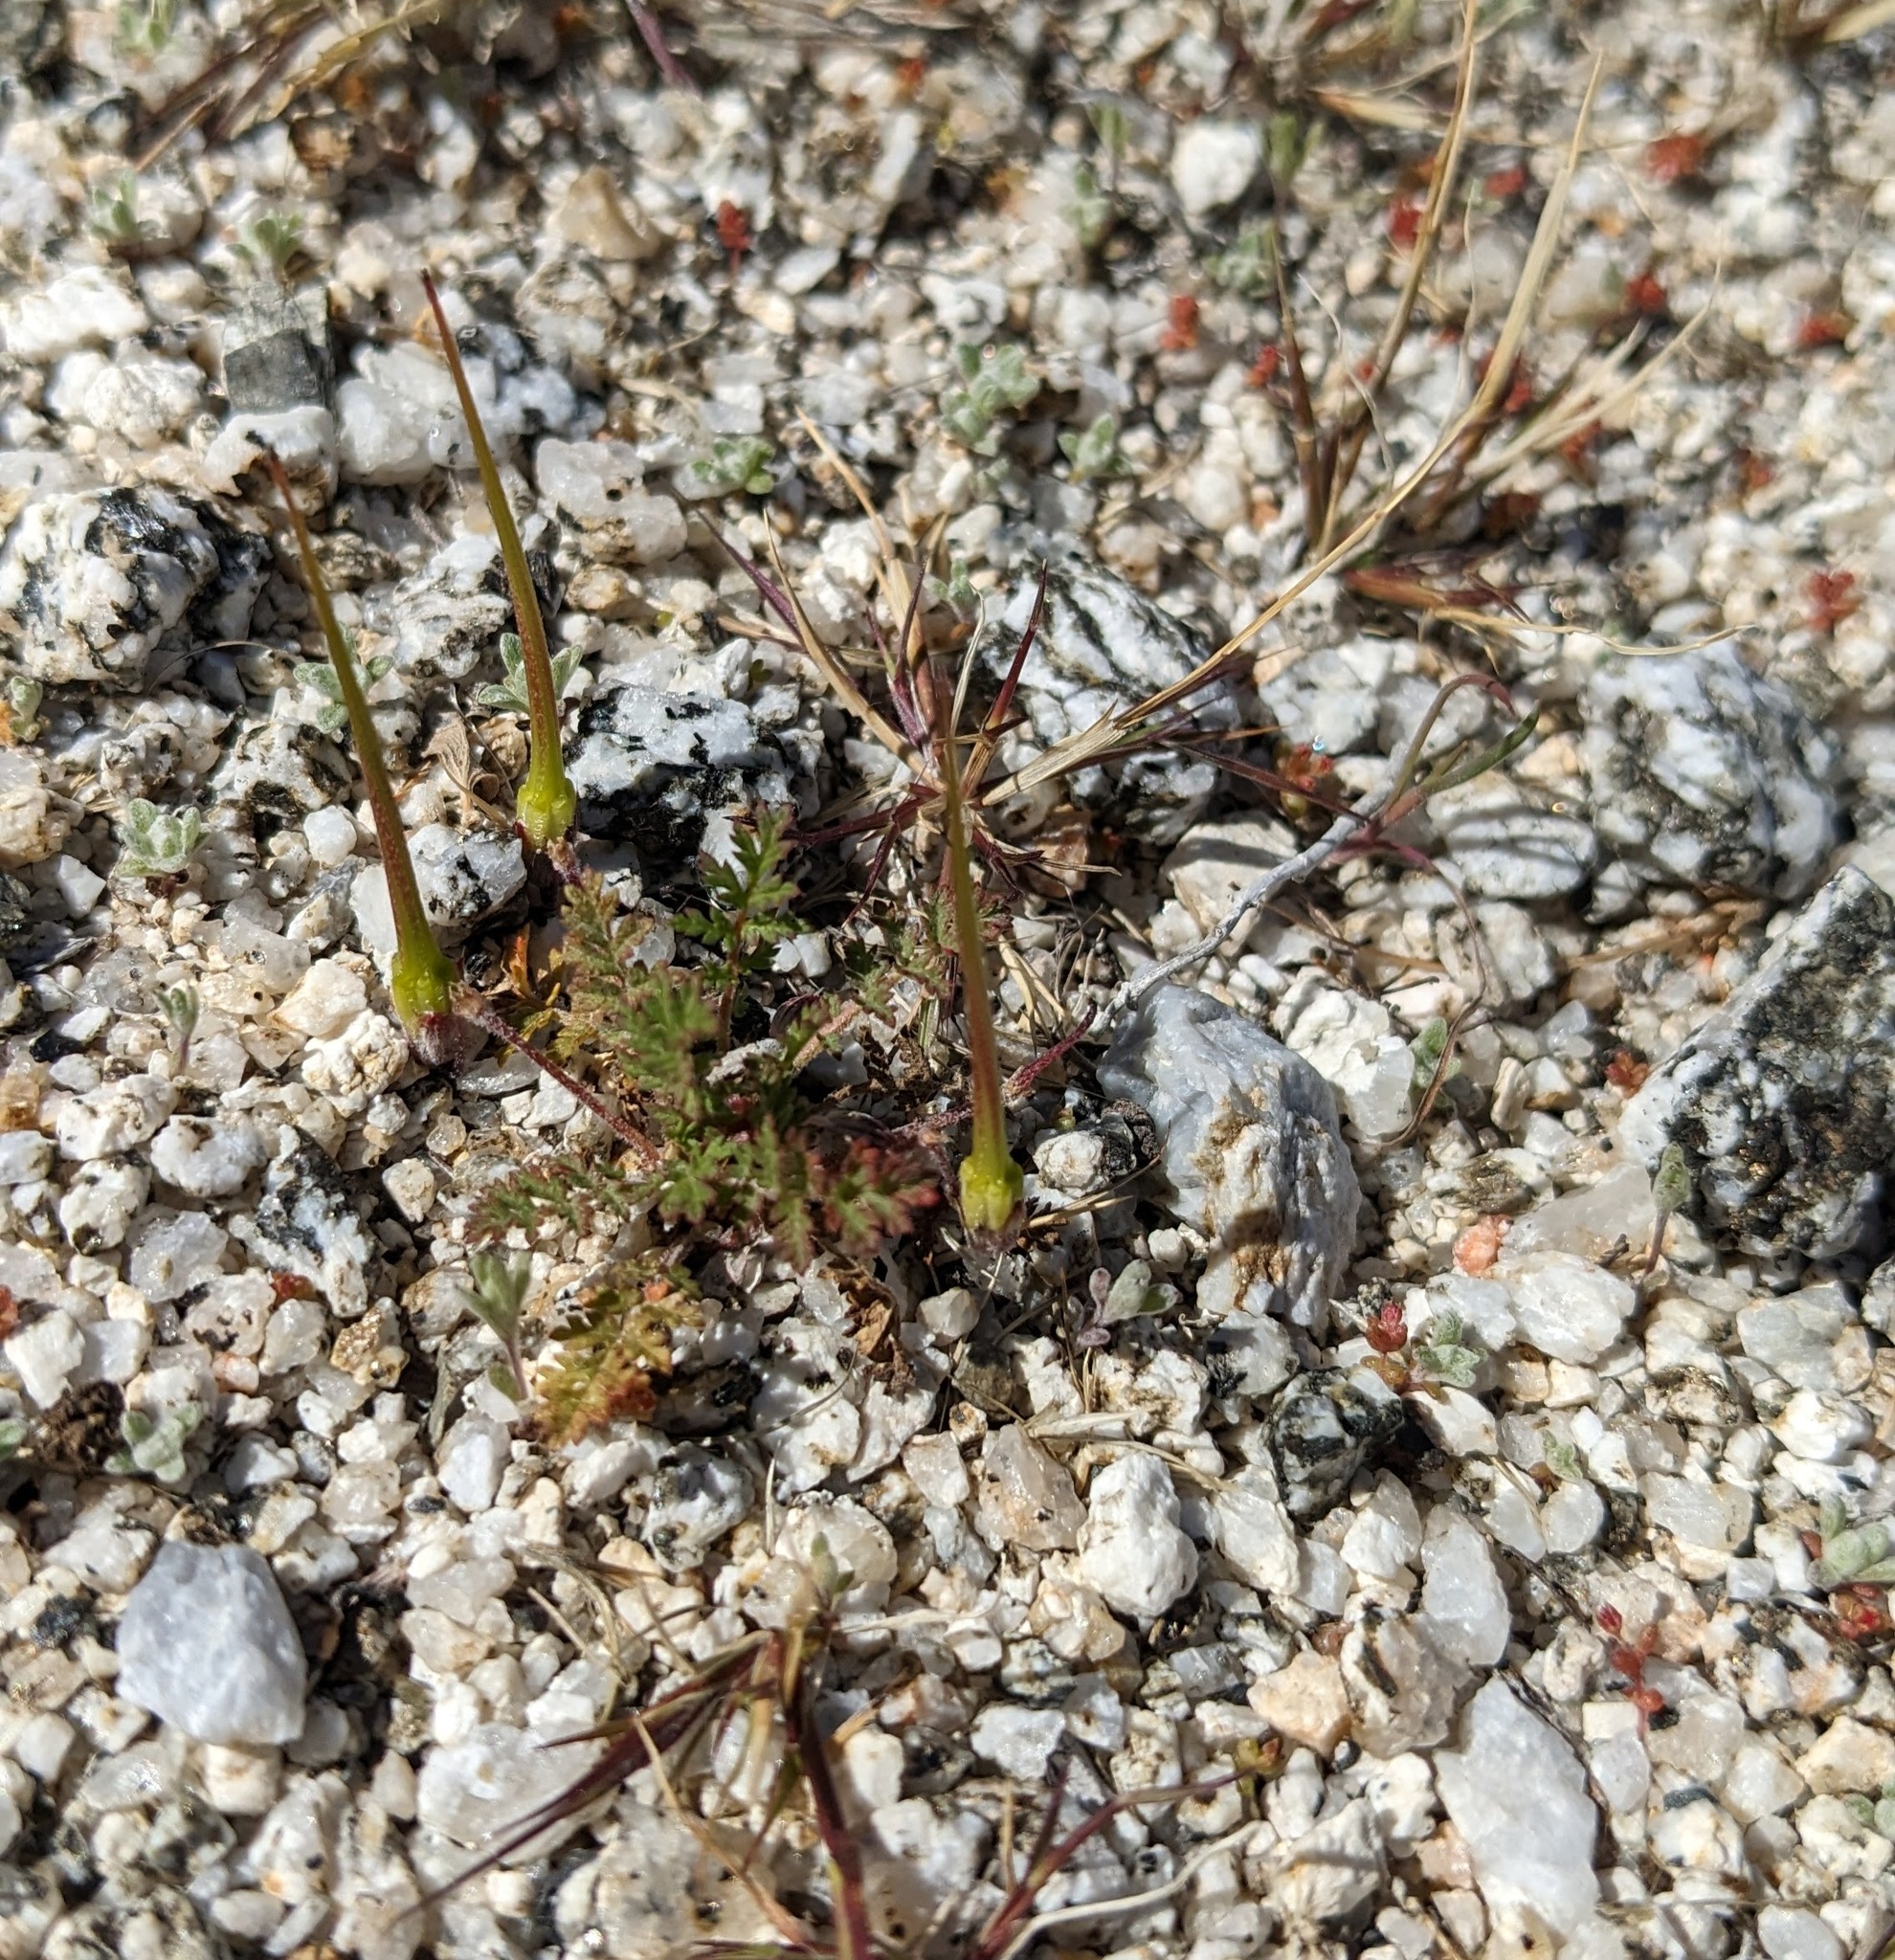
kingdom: Plantae
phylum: Tracheophyta
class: Magnoliopsida
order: Geraniales
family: Geraniaceae
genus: Erodium
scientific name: Erodium cicutarium
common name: Common stork's-bill
